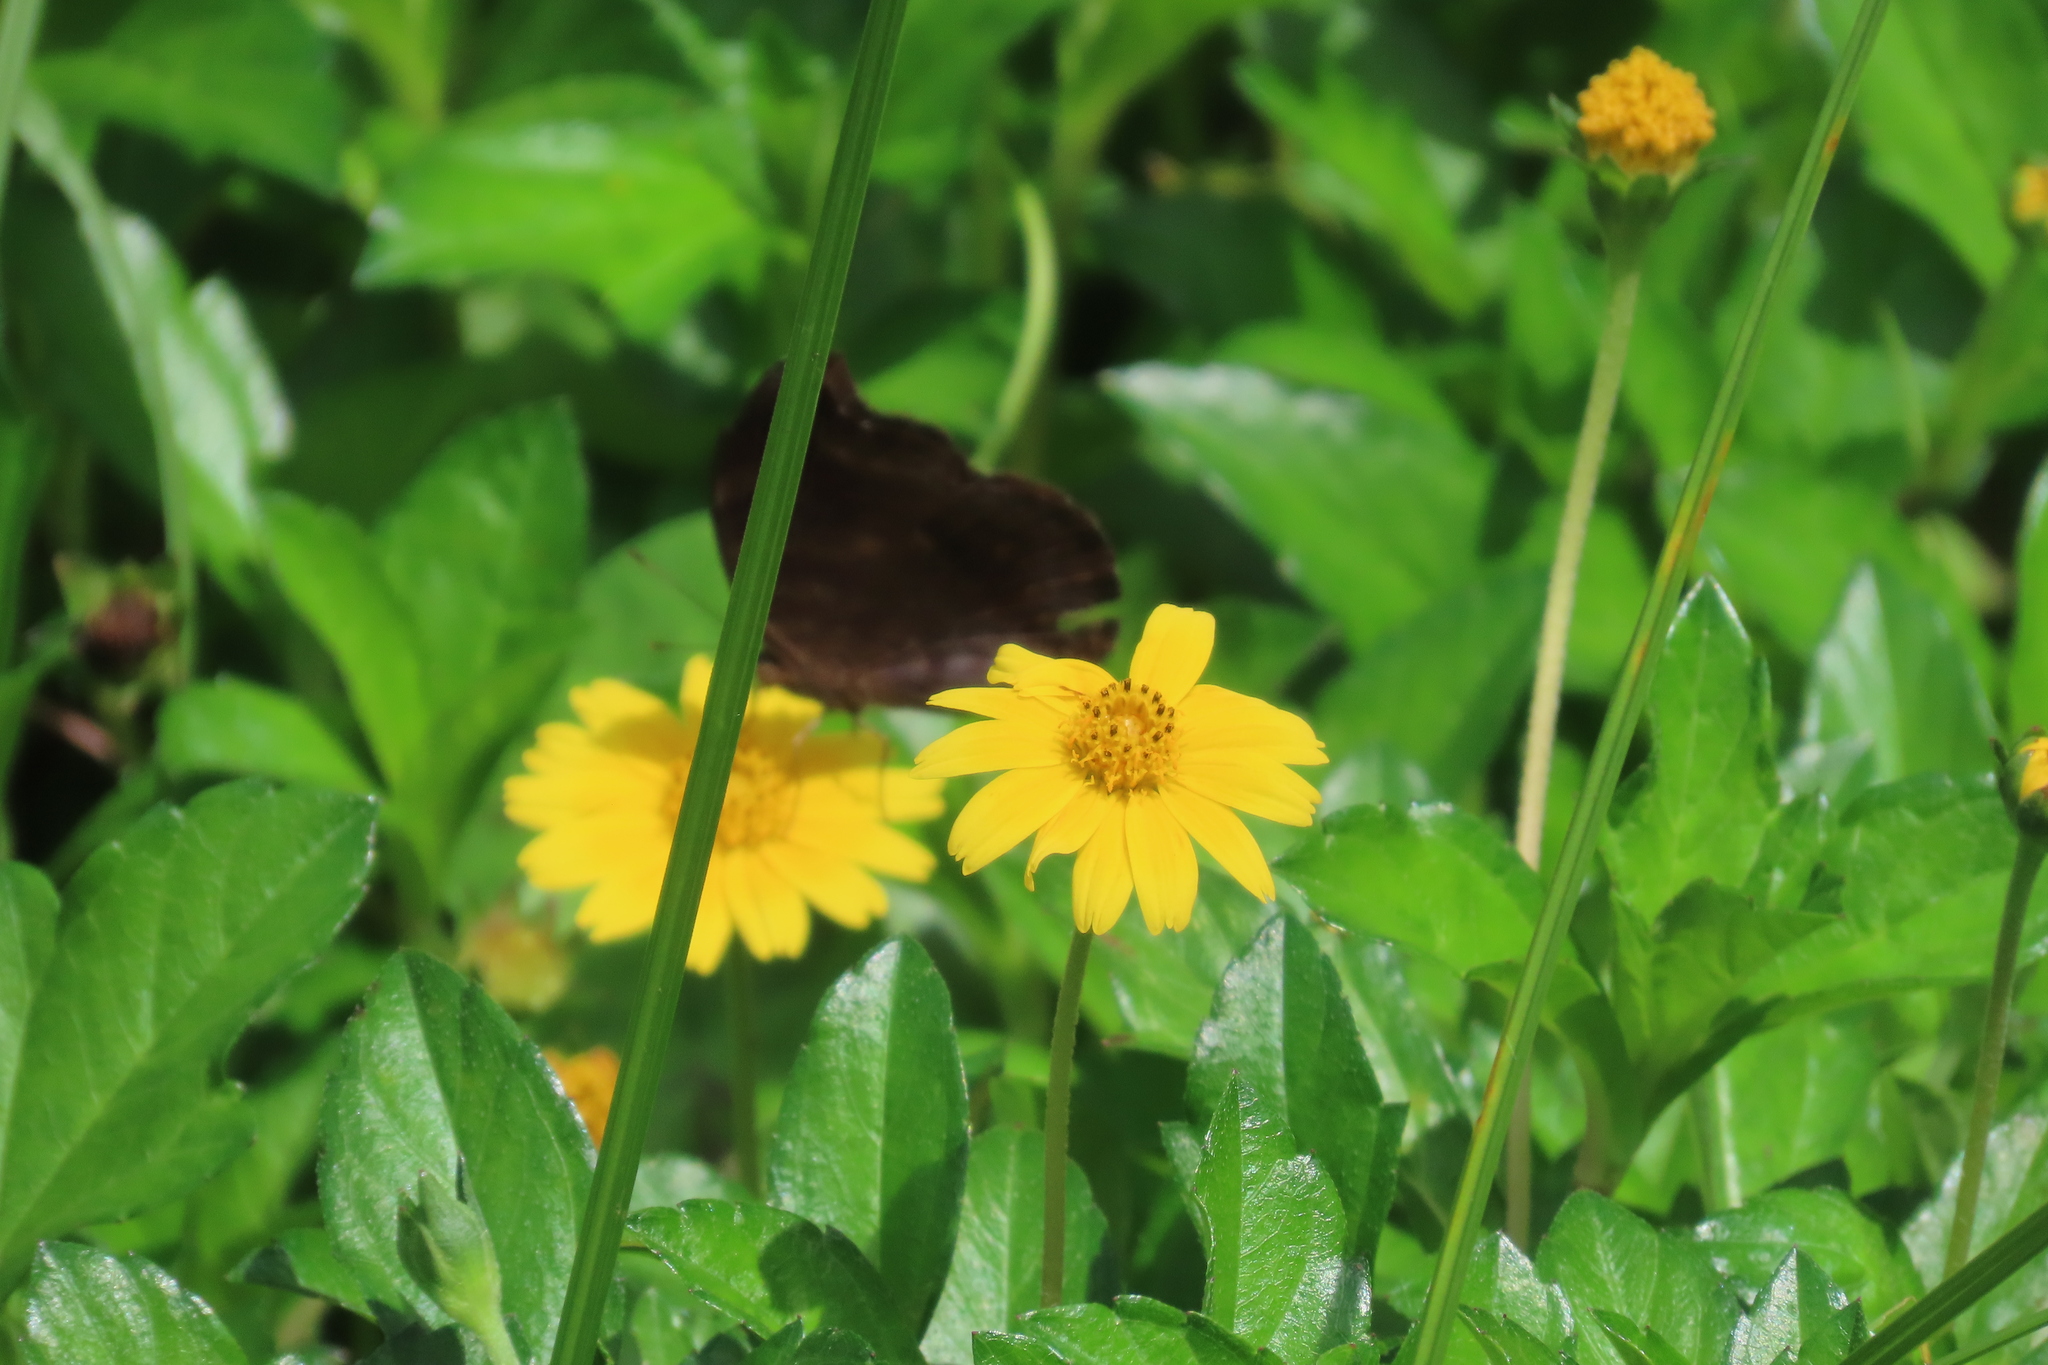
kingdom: Animalia
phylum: Arthropoda
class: Insecta
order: Lepidoptera
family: Nymphalidae
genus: Junonia
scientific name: Junonia iphita
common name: Chocolate pansy
